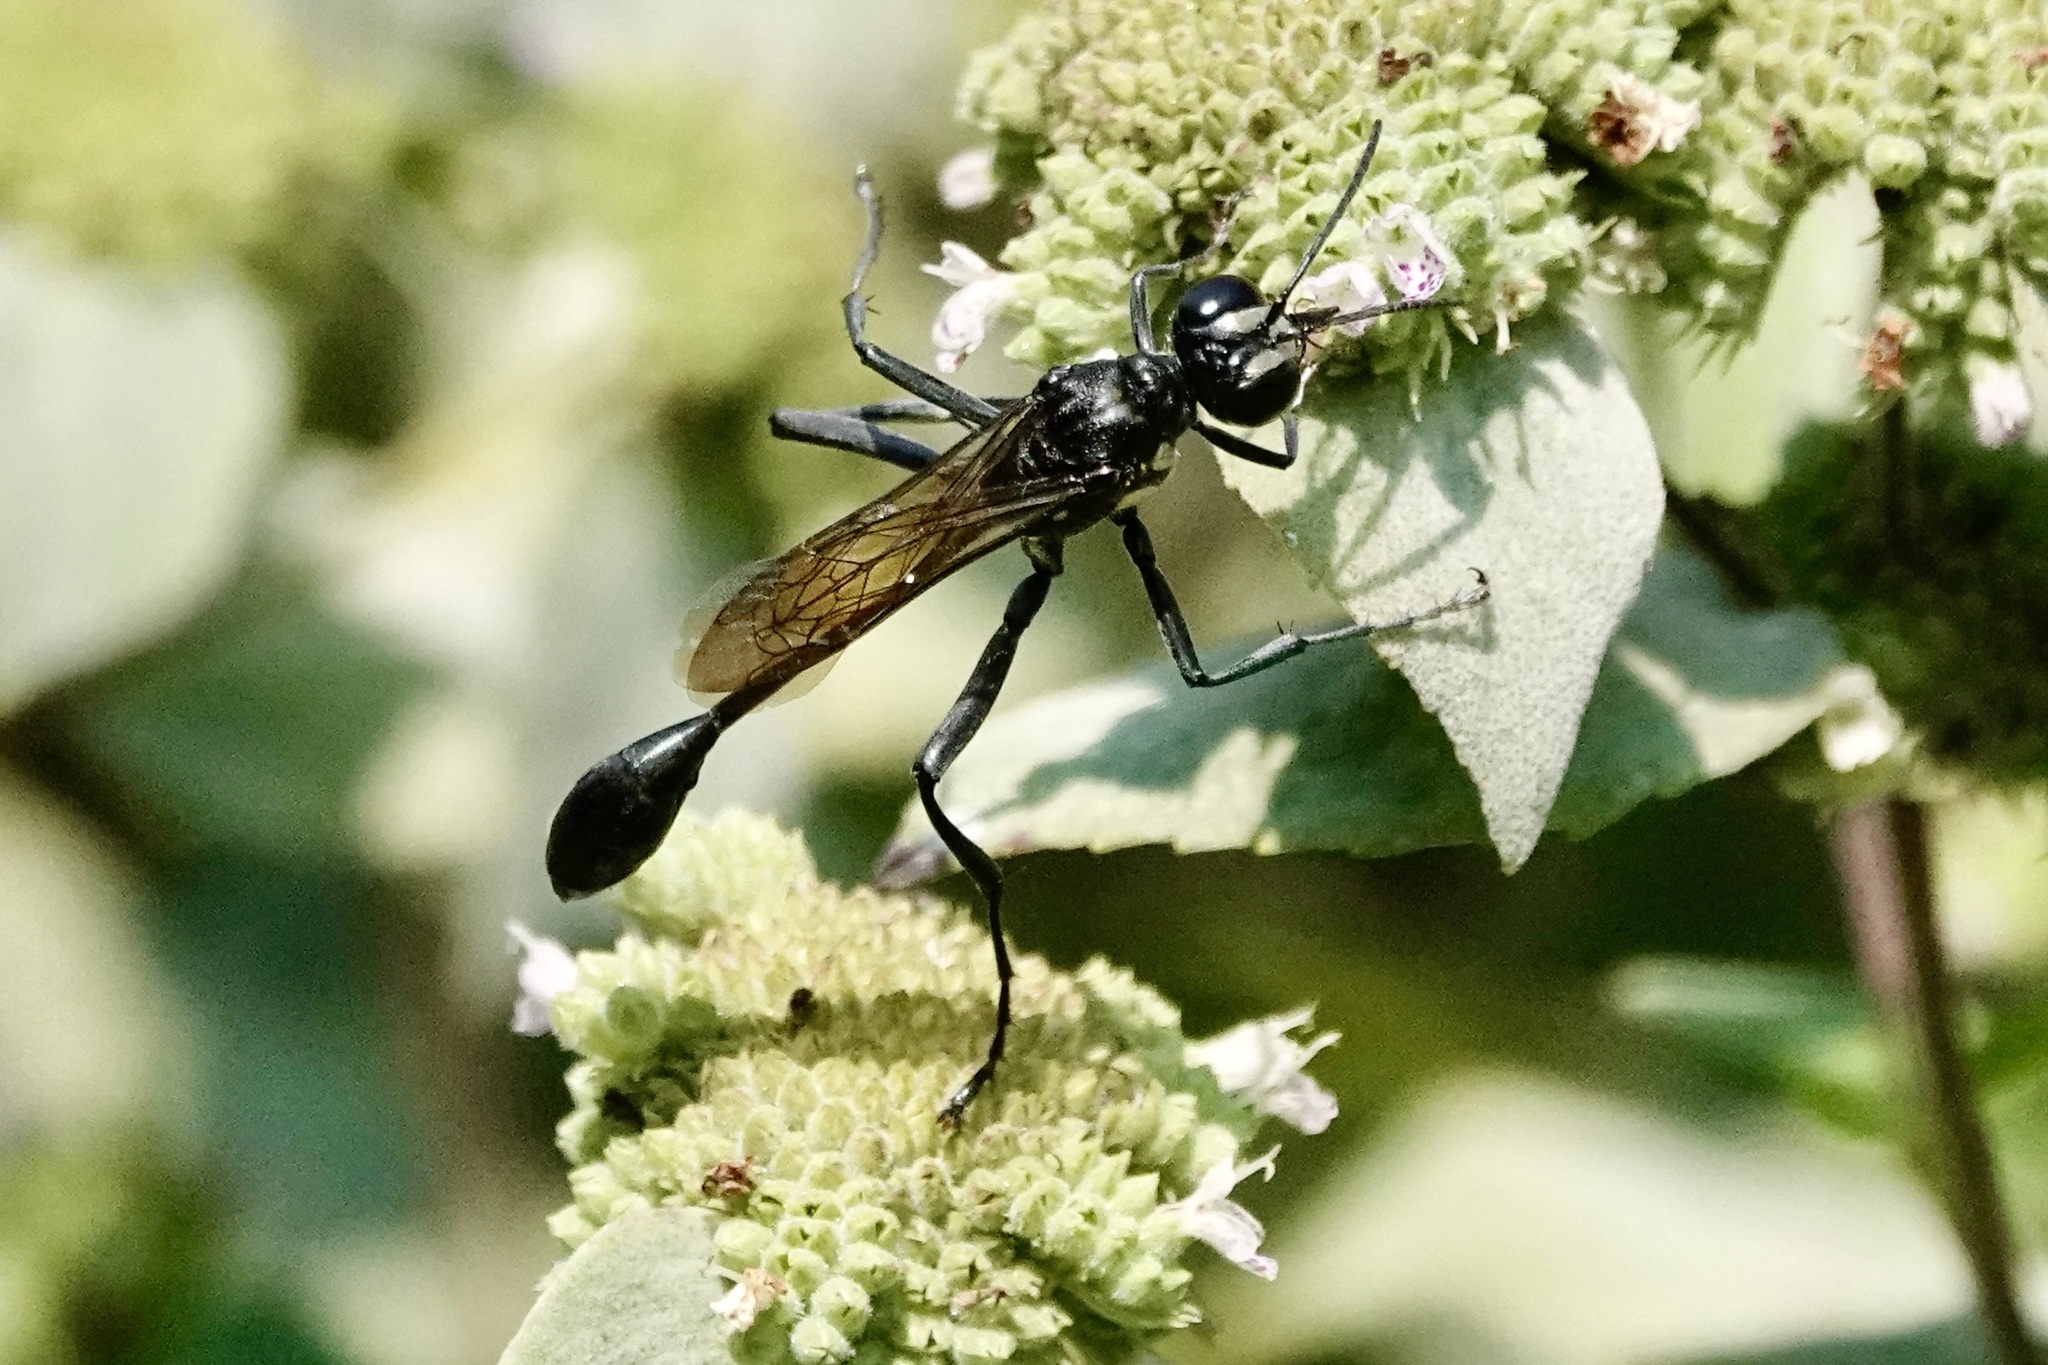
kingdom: Animalia
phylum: Arthropoda
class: Insecta
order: Hymenoptera
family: Sphecidae
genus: Eremnophila
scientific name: Eremnophila aureonotata
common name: Gold-marked thread-waisted wasp
